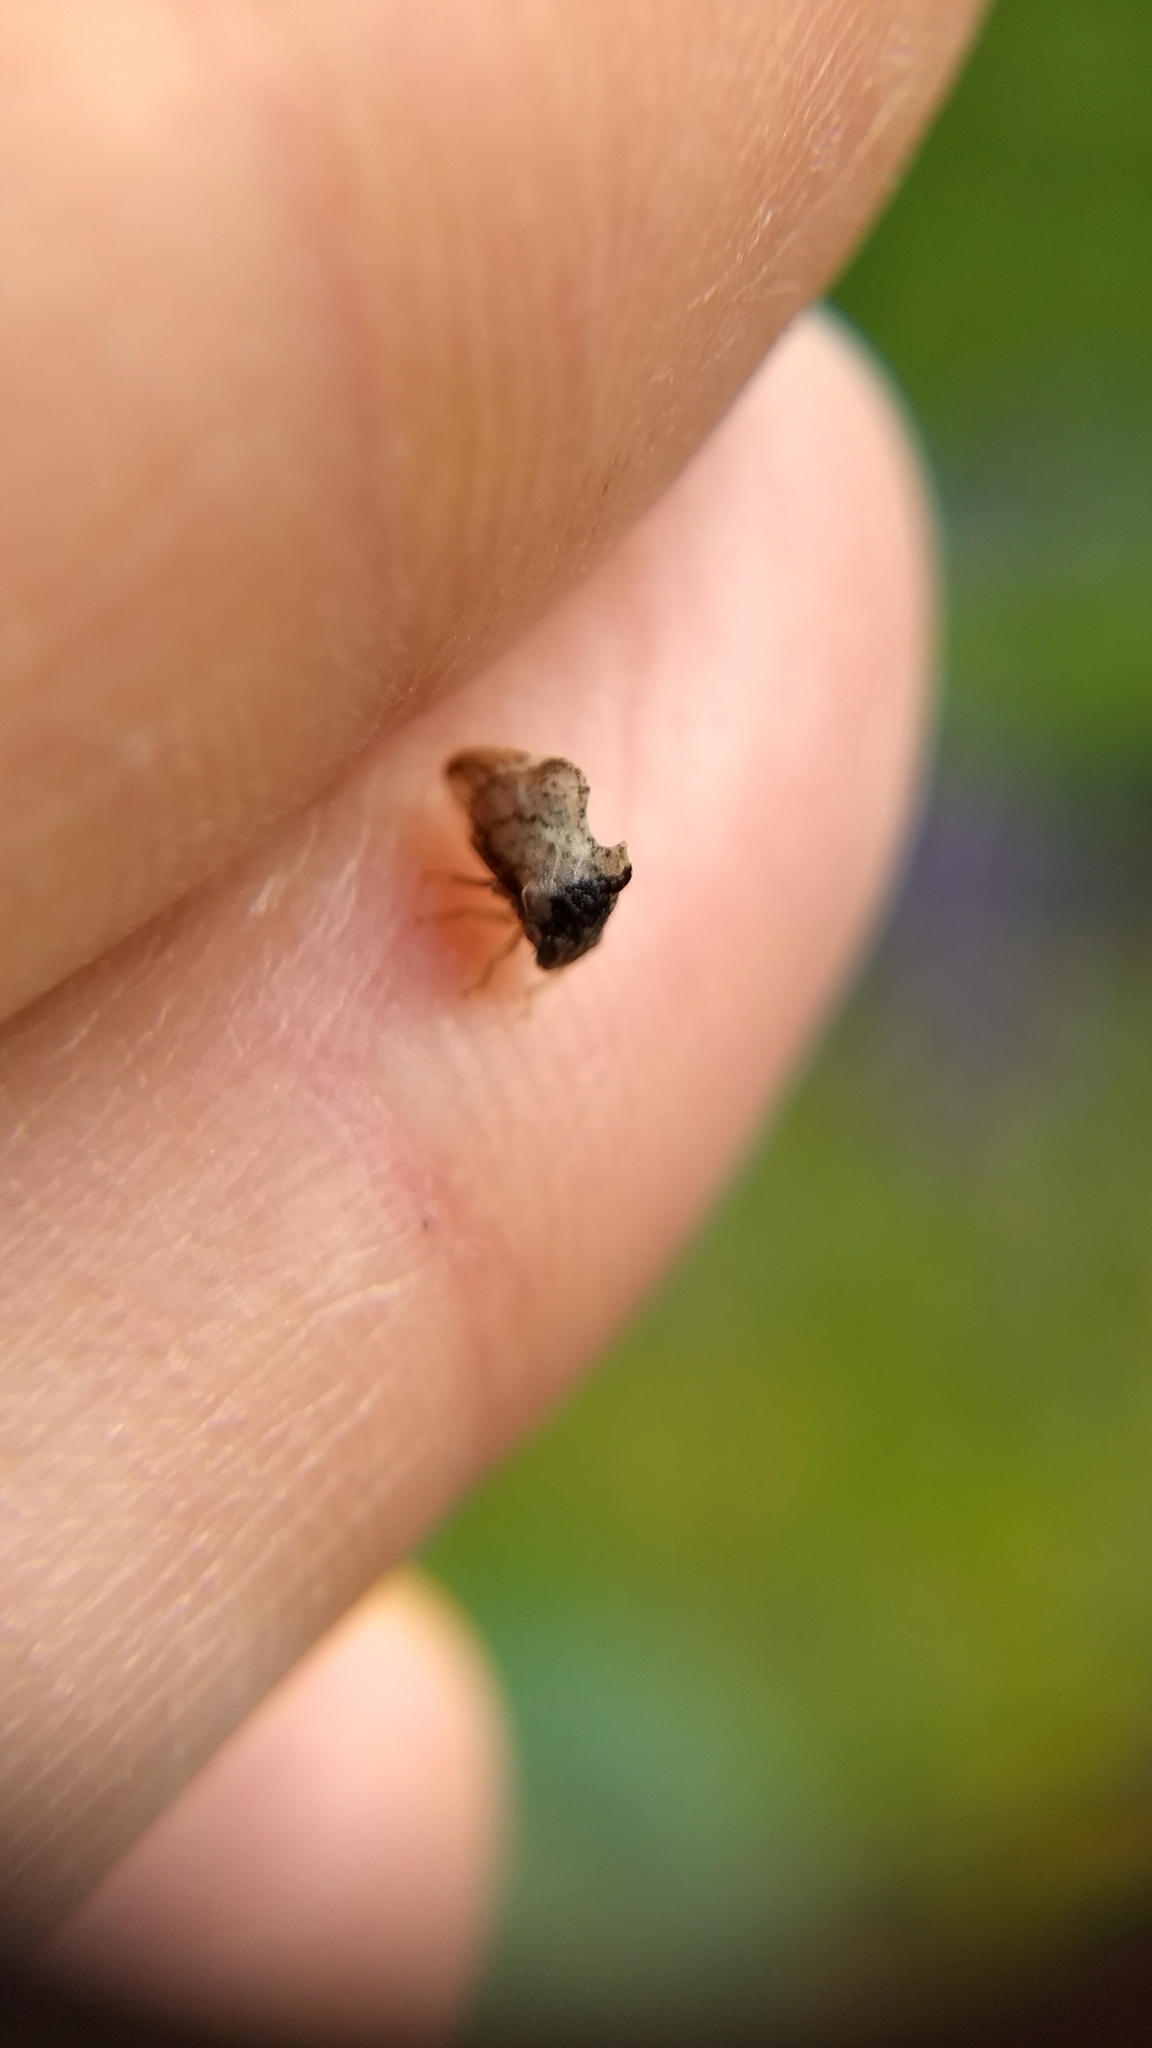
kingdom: Animalia
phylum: Arthropoda
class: Insecta
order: Hemiptera
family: Membracidae
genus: Entylia
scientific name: Entylia carinata
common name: Keeled treehopper
